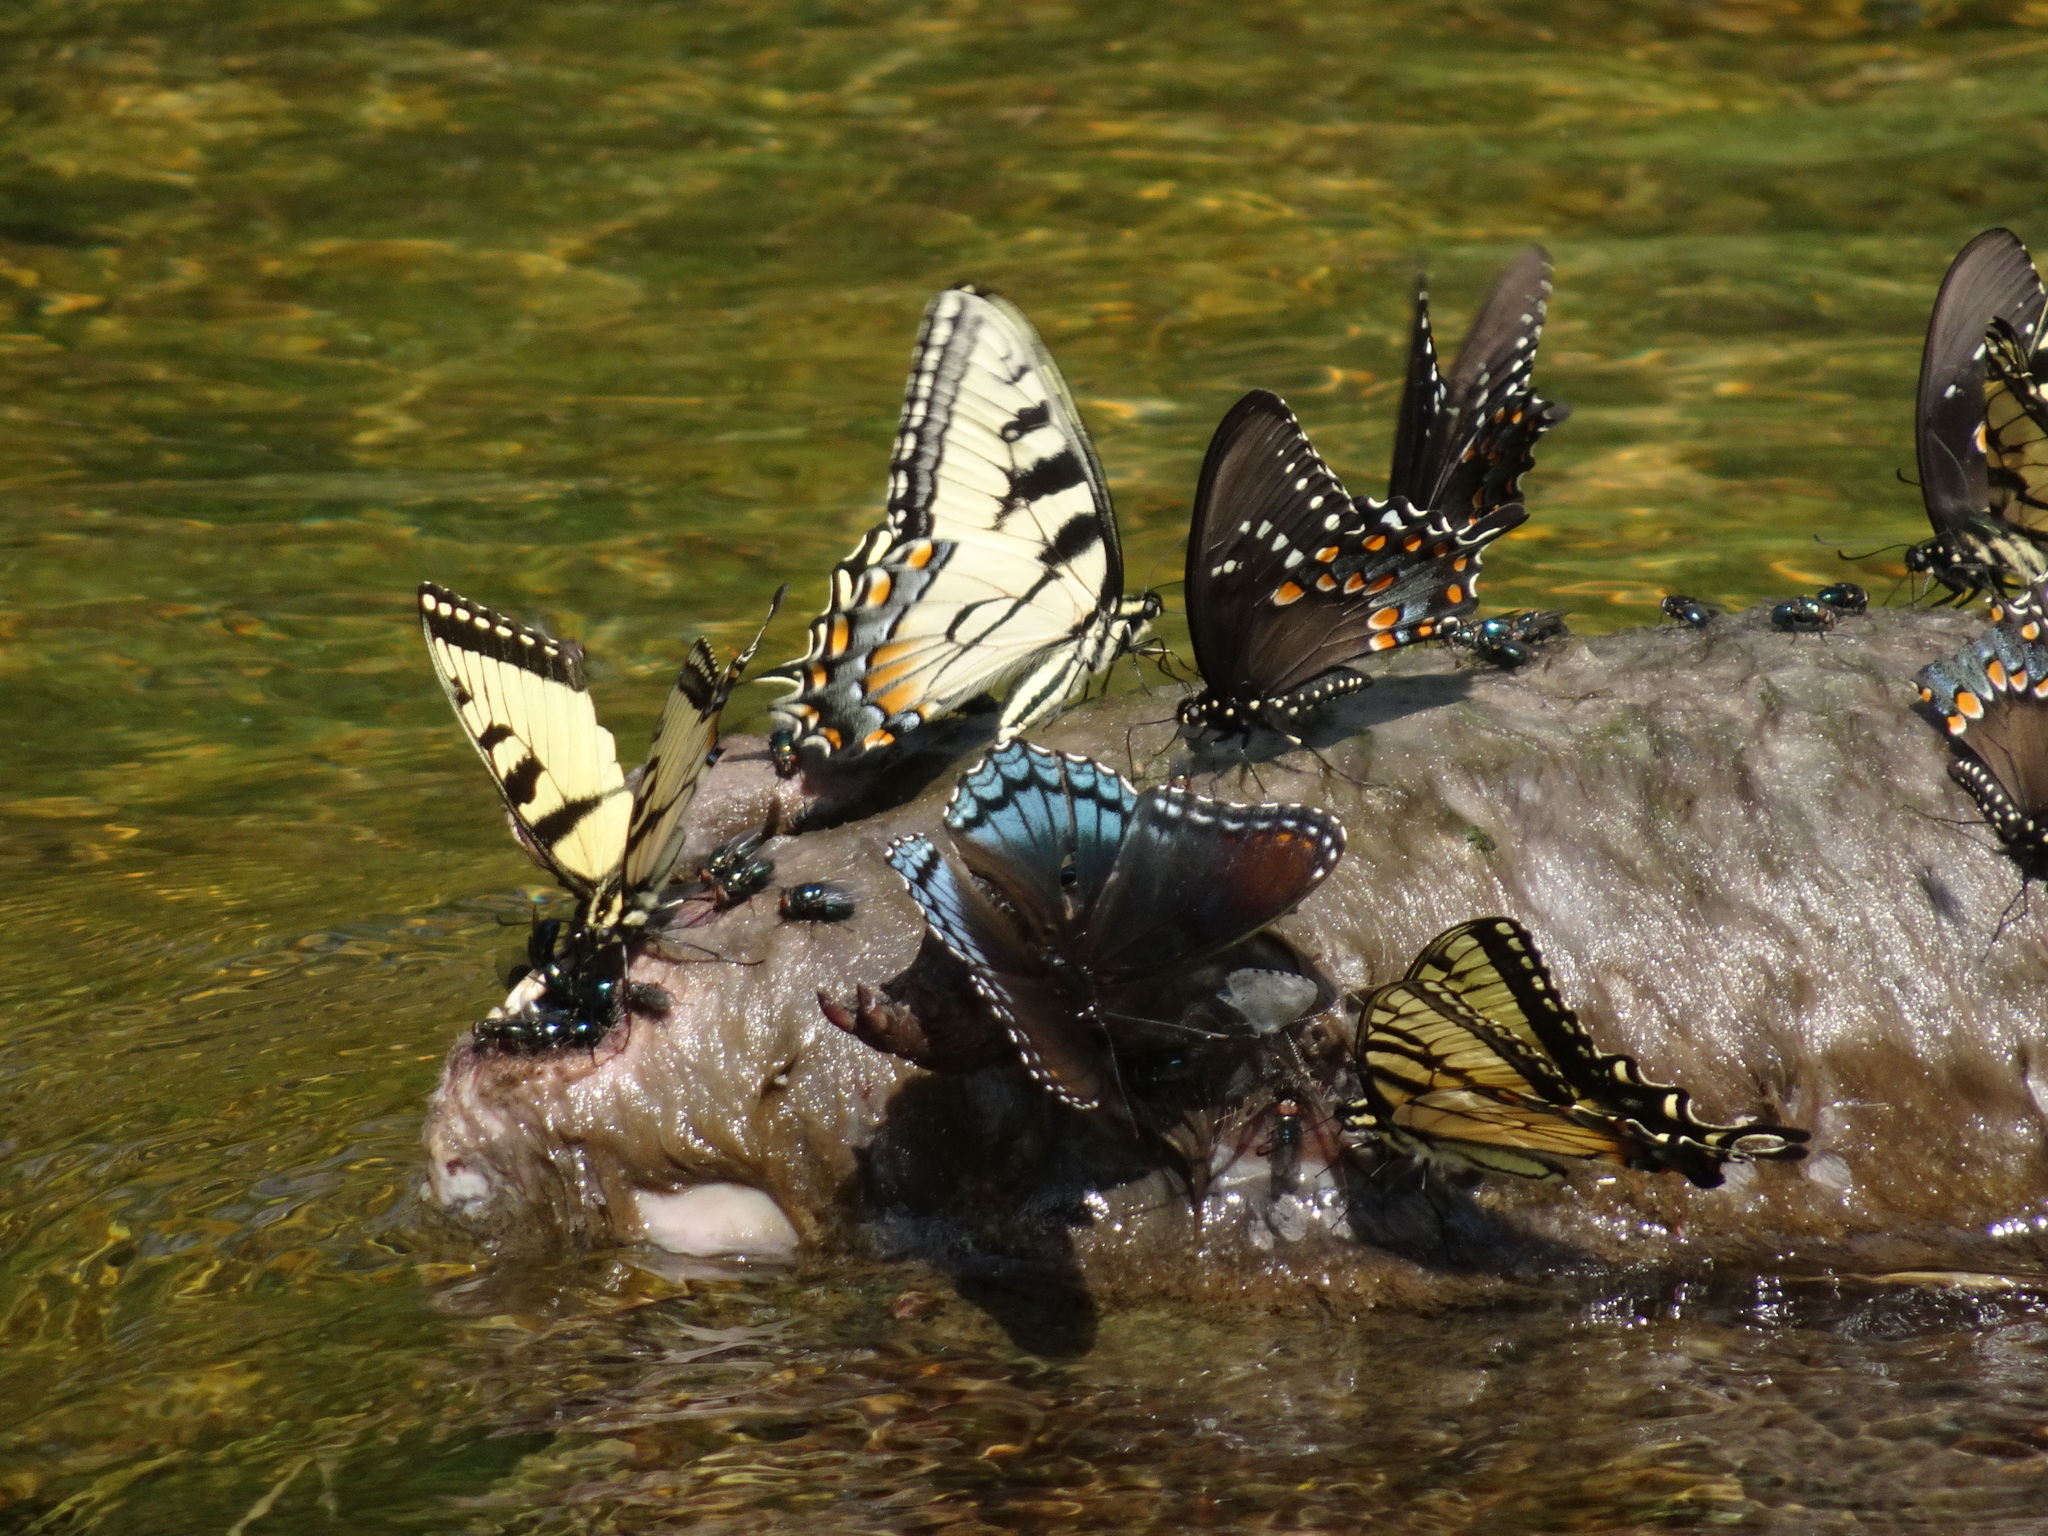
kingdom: Animalia
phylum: Arthropoda
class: Insecta
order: Lepidoptera
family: Nymphalidae
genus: Limenitis
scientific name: Limenitis astyanax
